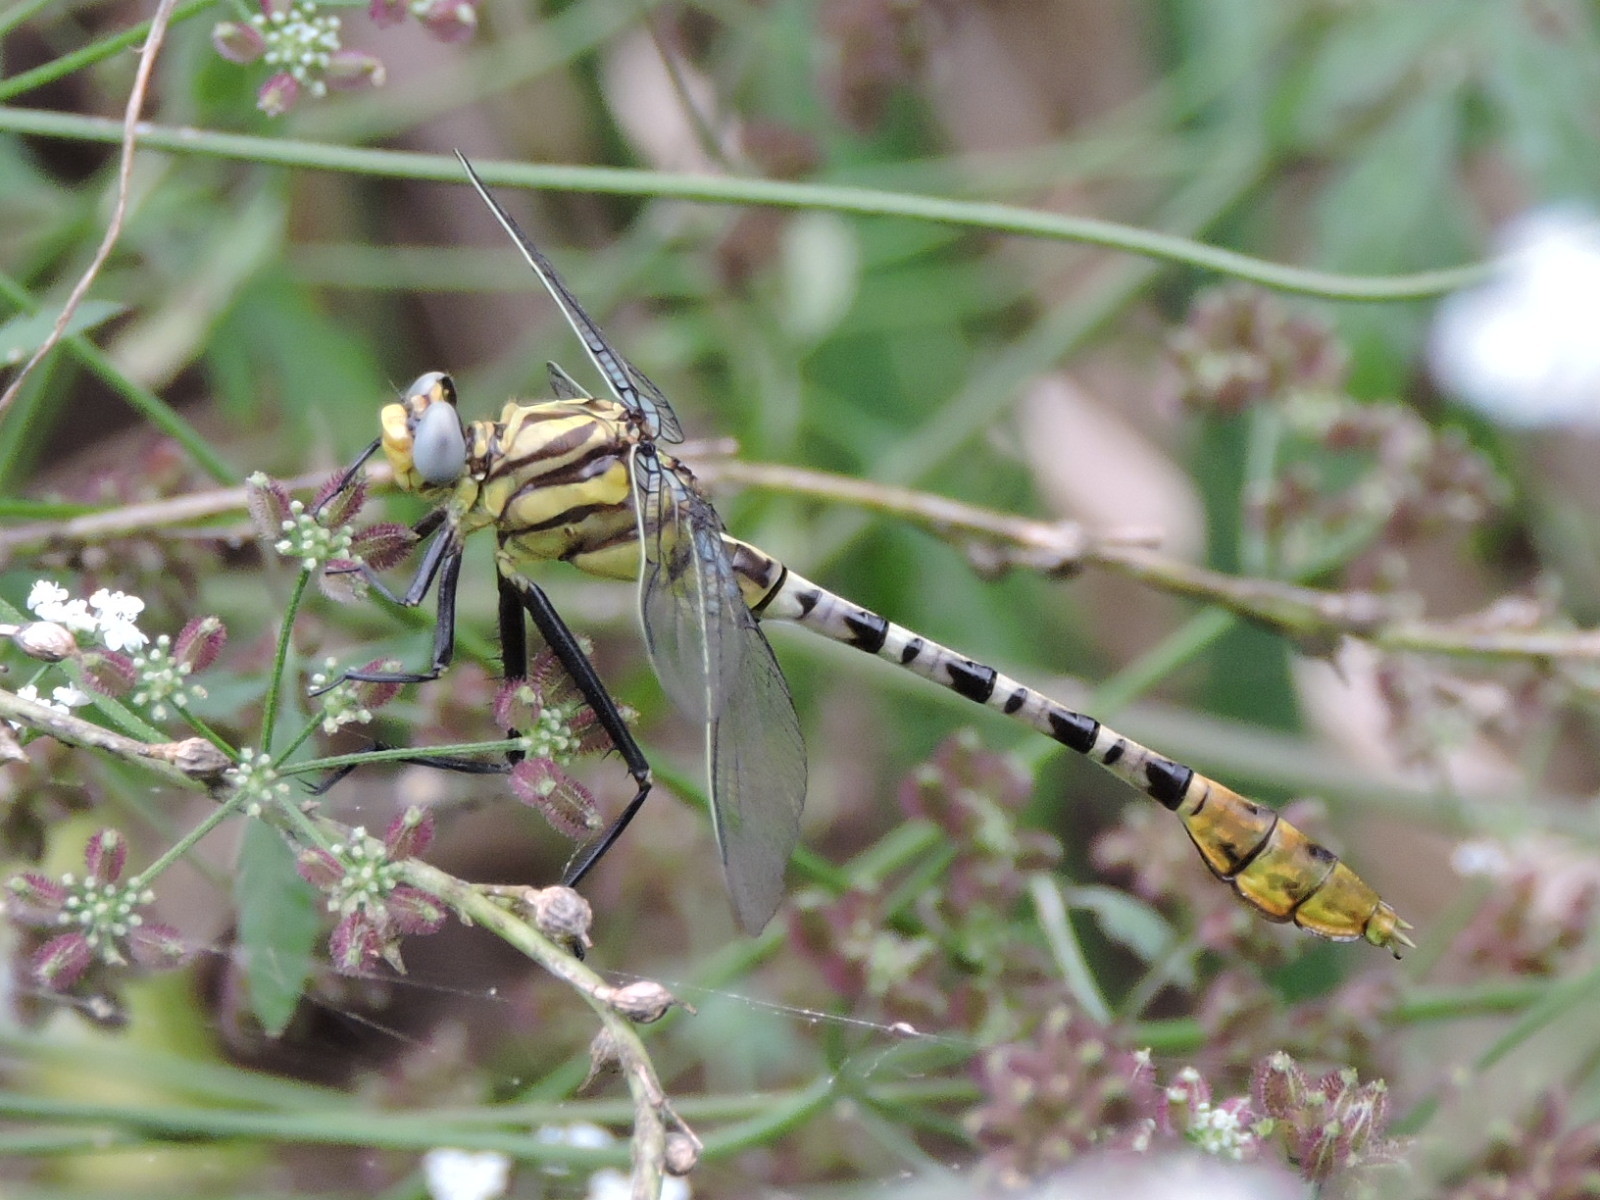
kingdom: Animalia
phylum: Arthropoda
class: Insecta
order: Odonata
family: Gomphidae
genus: Dromogomphus
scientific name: Dromogomphus spoliatus
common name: Flag-tailed spinyleg
